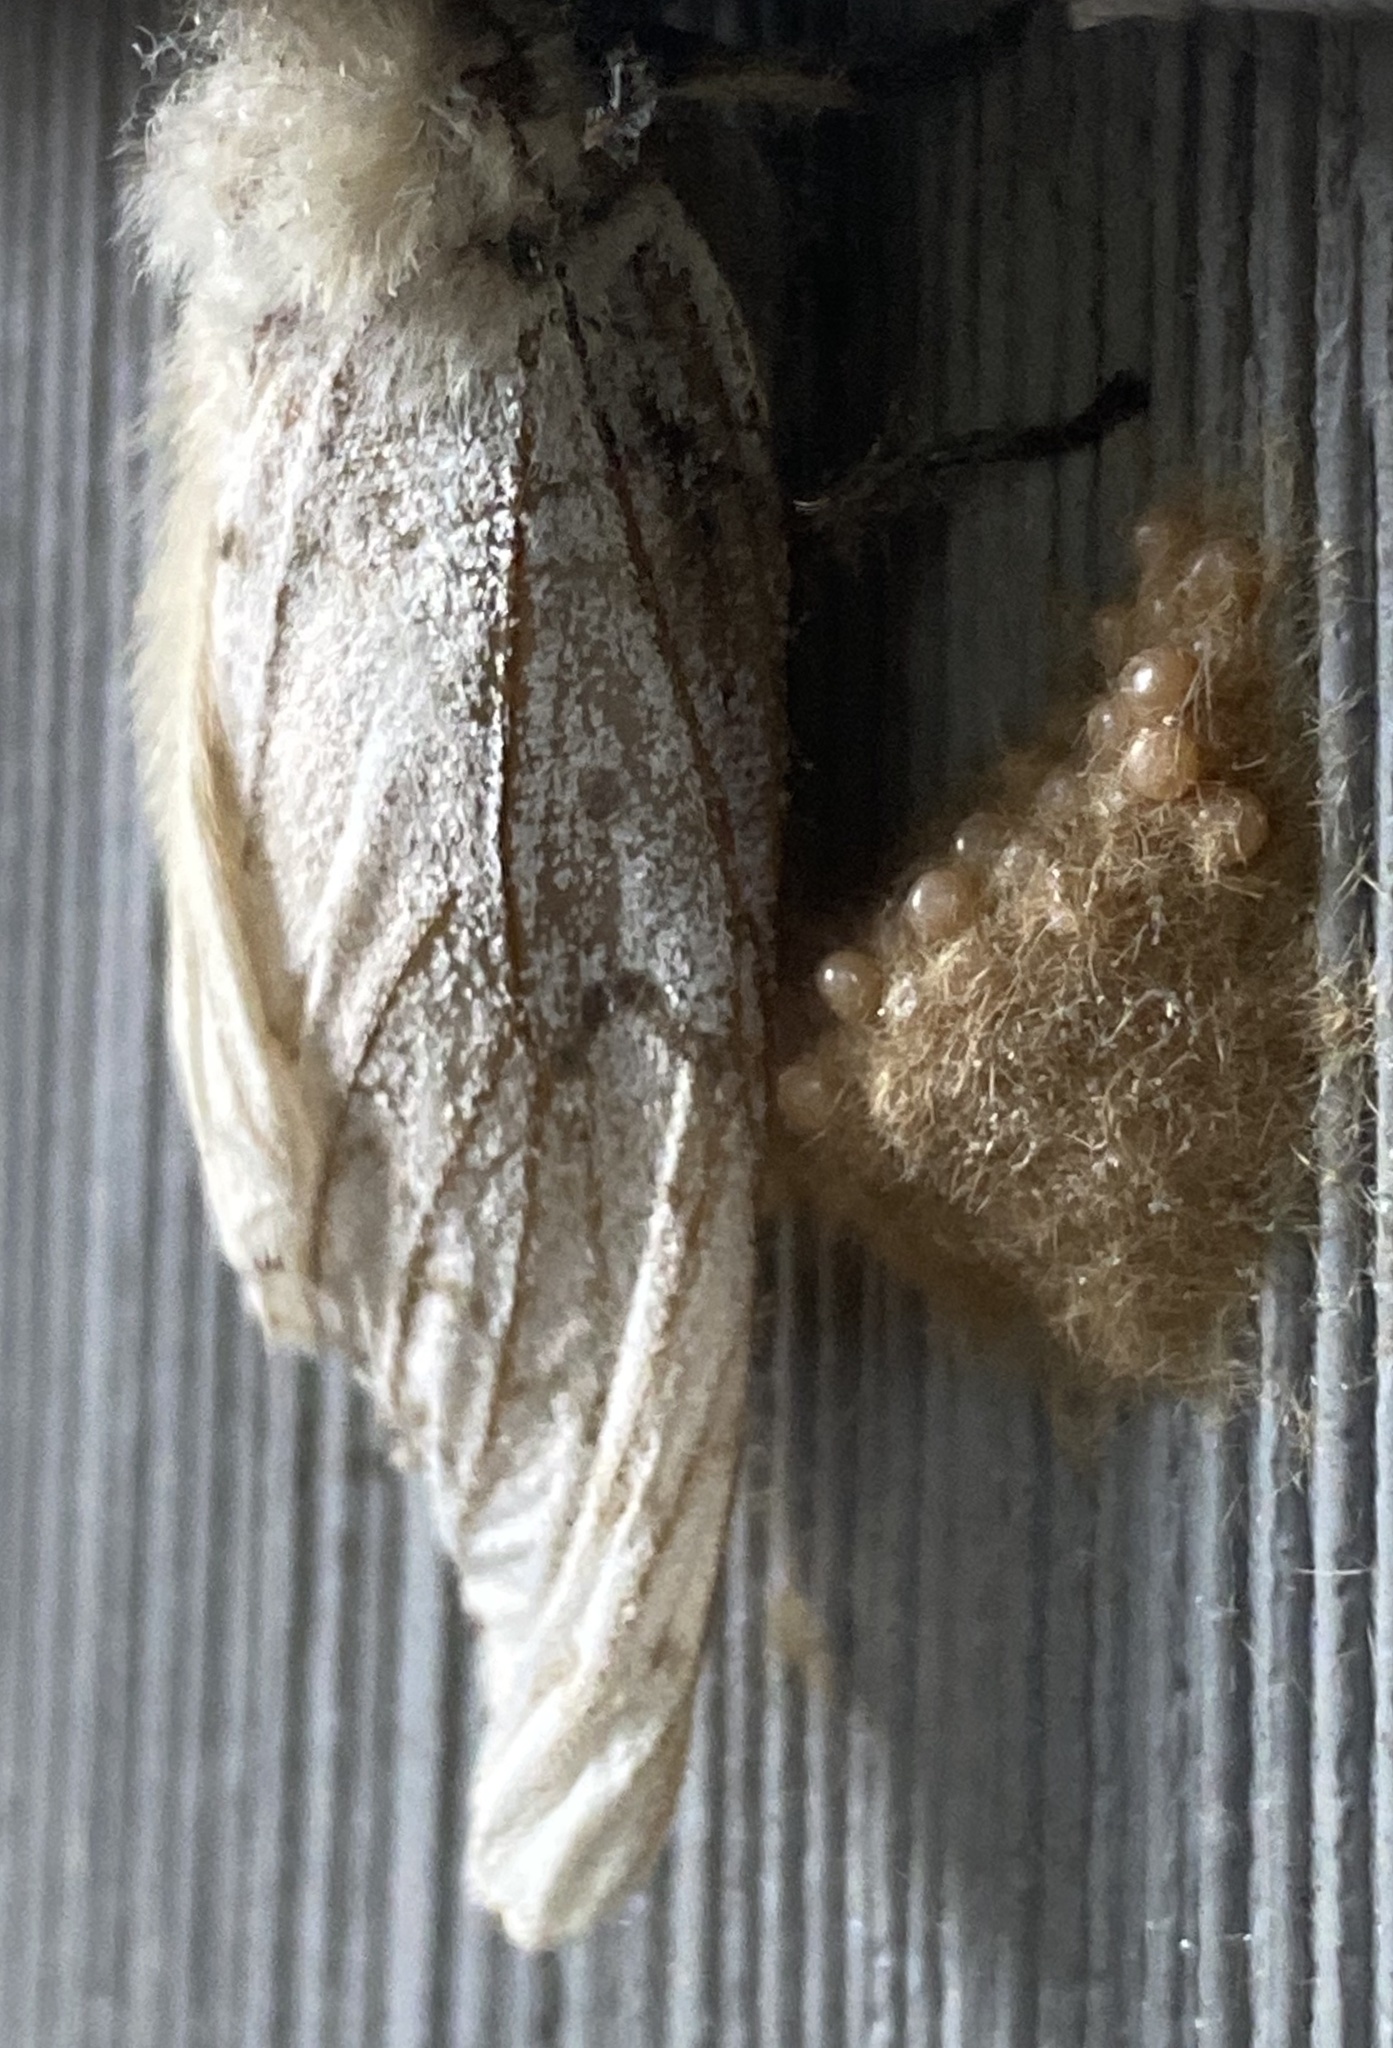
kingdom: Animalia
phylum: Arthropoda
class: Insecta
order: Lepidoptera
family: Erebidae
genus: Lymantria
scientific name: Lymantria dispar
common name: Gypsy moth
